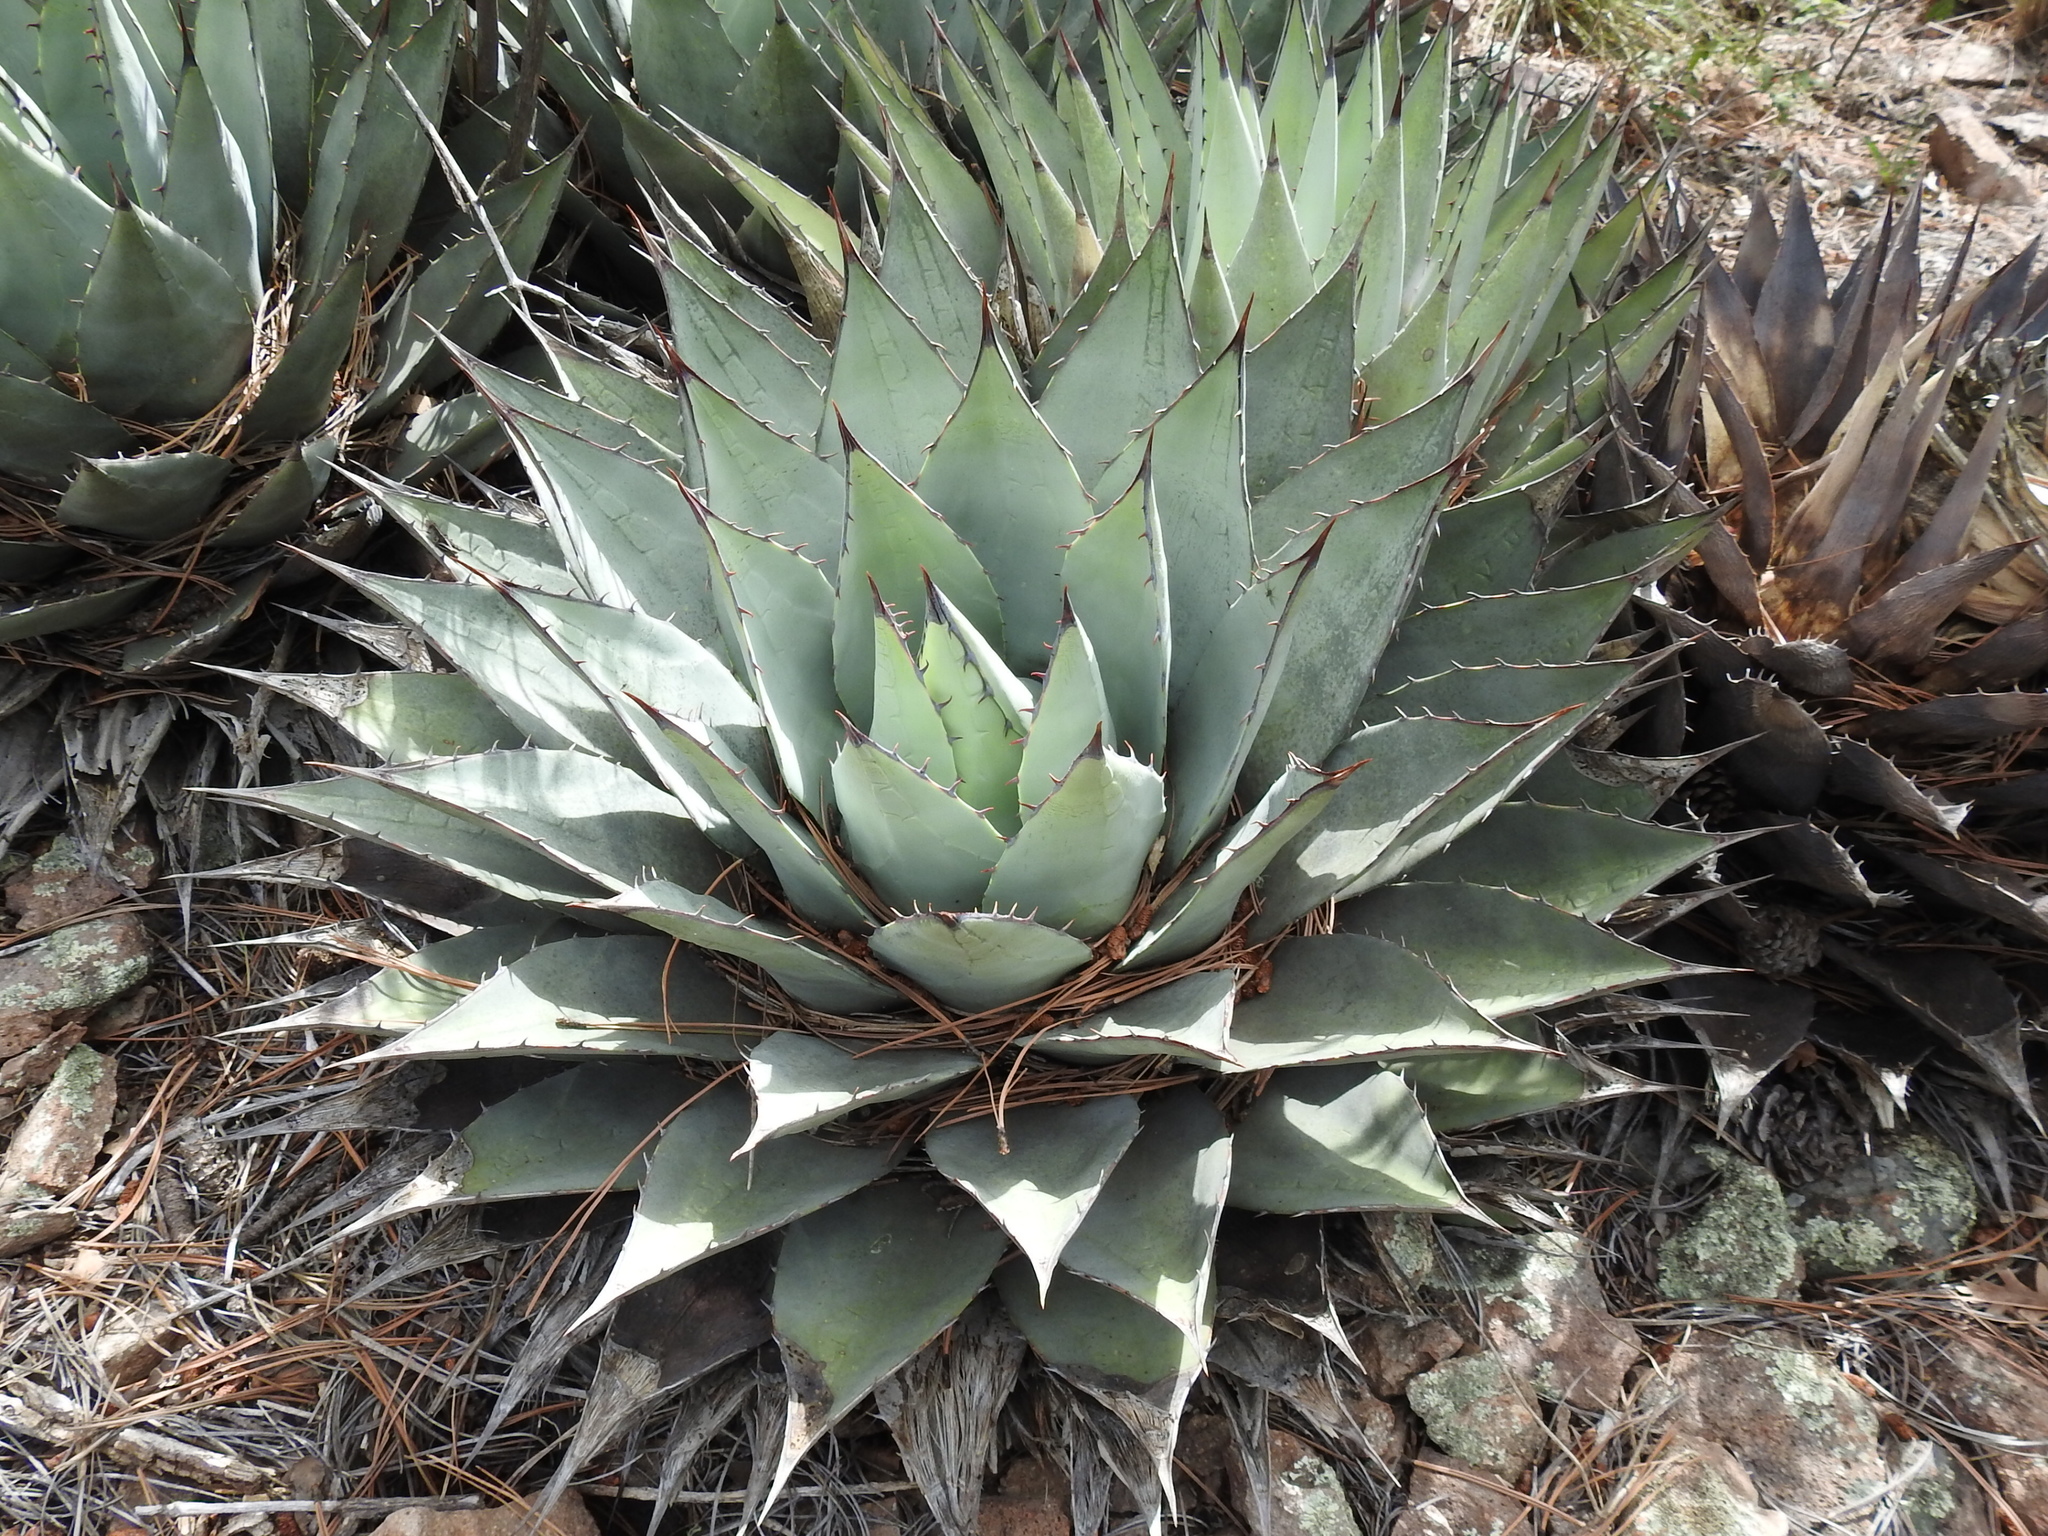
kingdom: Plantae
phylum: Tracheophyta
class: Liliopsida
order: Asparagales
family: Asparagaceae
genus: Agave
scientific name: Agave parryi
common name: Parry's agave
